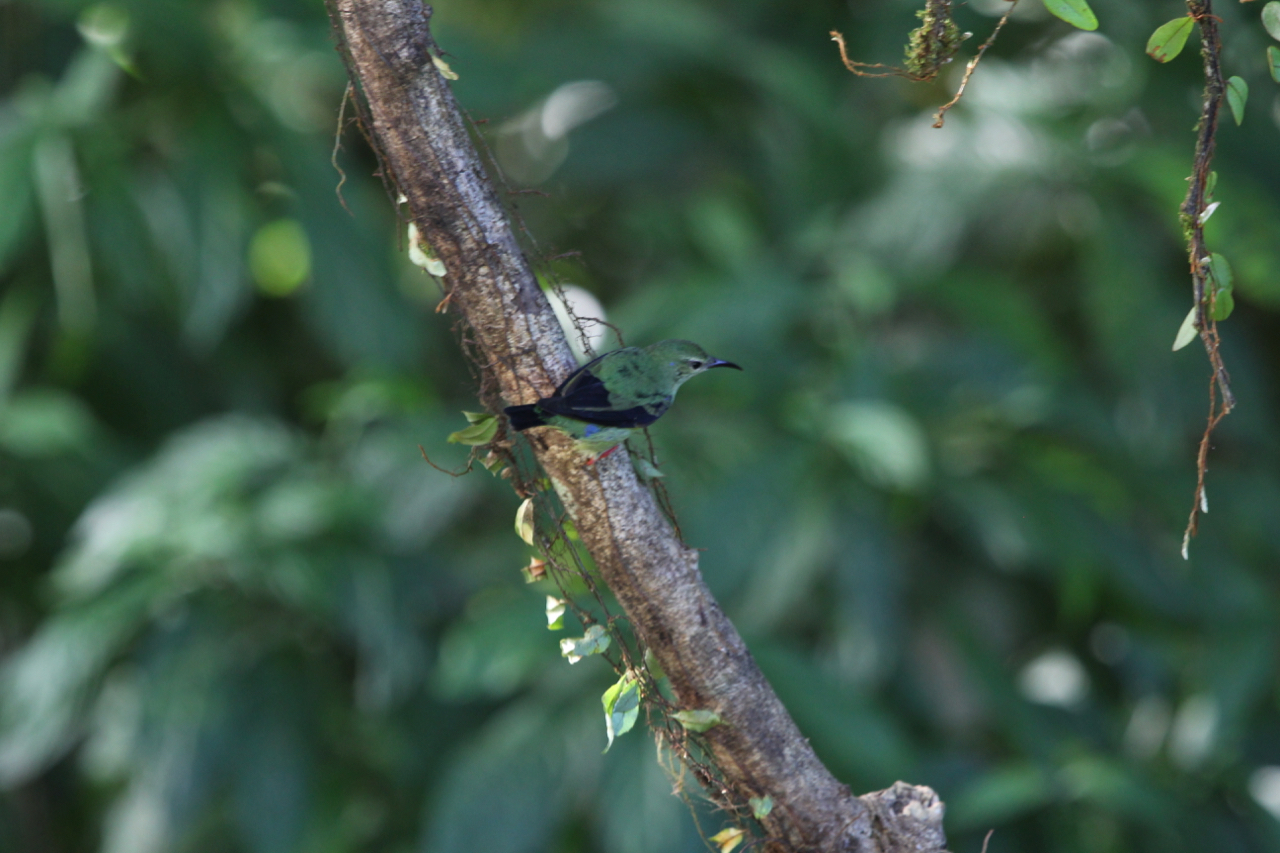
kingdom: Animalia
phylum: Chordata
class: Aves
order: Passeriformes
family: Thraupidae
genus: Cyanerpes
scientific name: Cyanerpes cyaneus
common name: Red-legged honeycreeper
